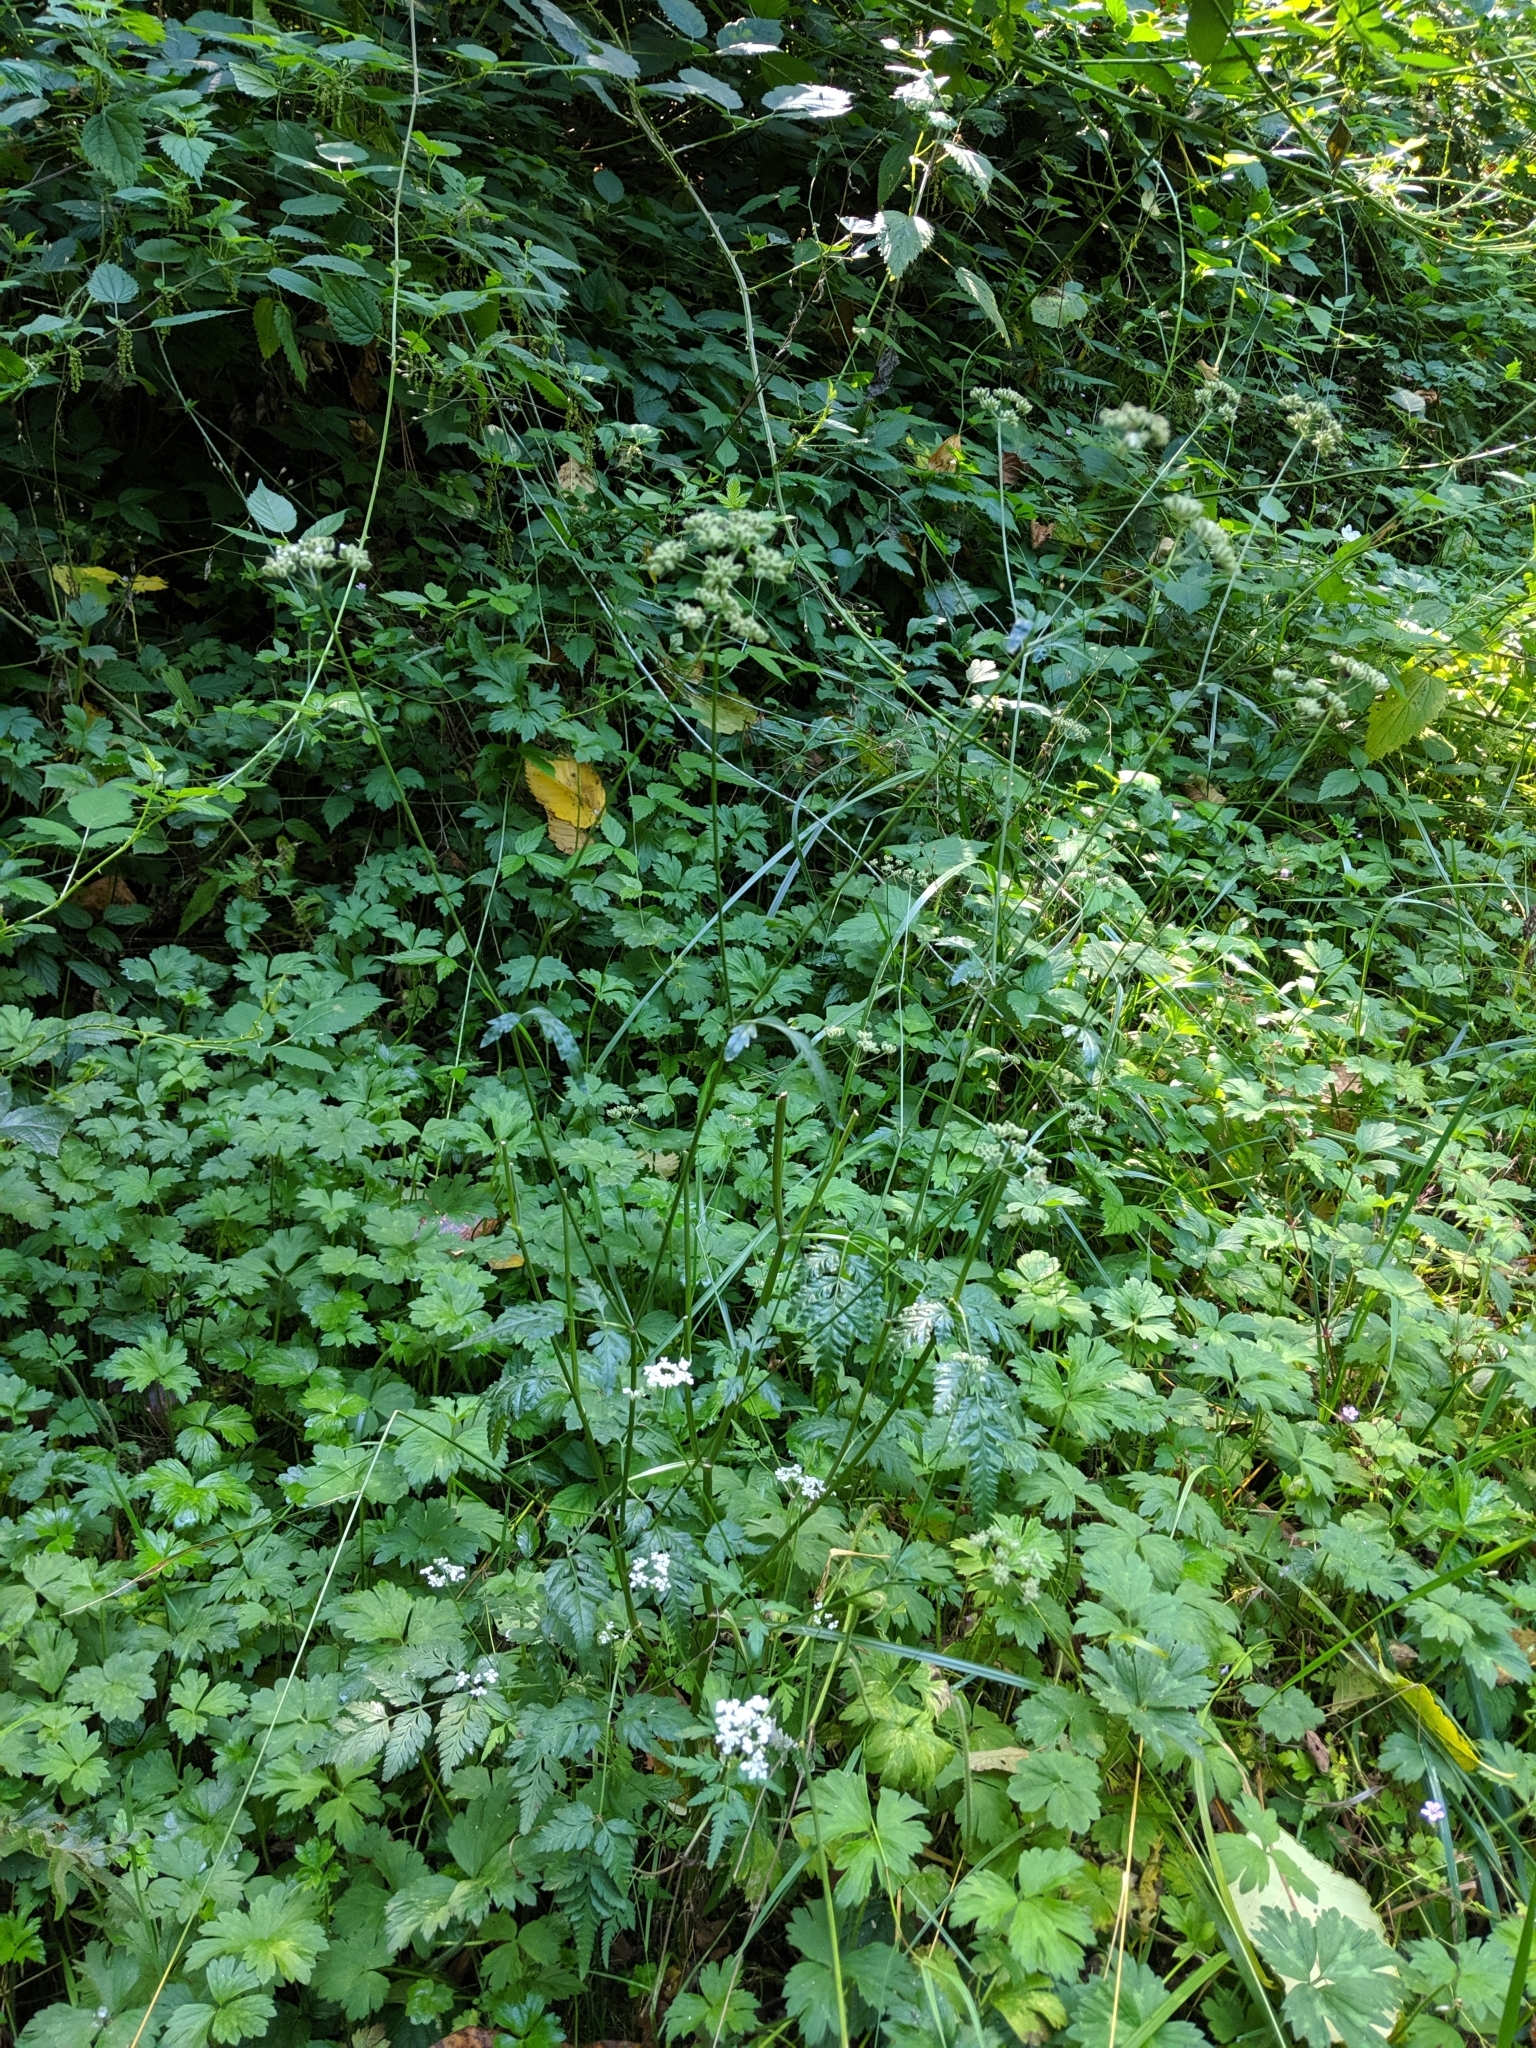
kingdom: Plantae
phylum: Tracheophyta
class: Magnoliopsida
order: Apiales
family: Apiaceae
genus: Torilis
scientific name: Torilis japonica
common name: Upright hedge-parsley
